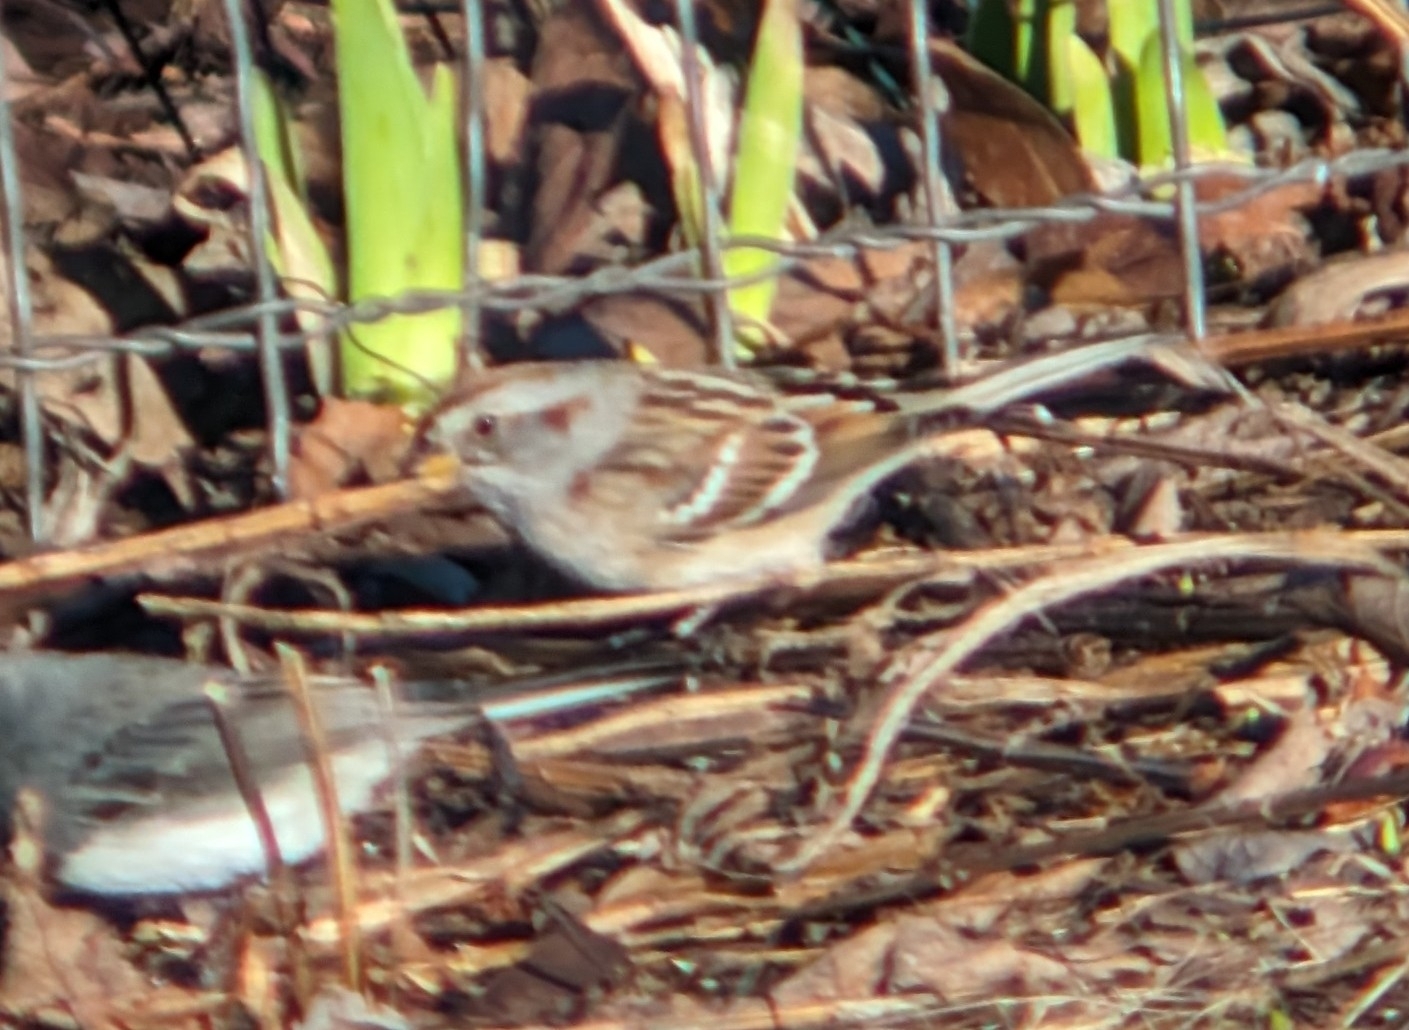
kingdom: Animalia
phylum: Chordata
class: Aves
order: Passeriformes
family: Passerellidae
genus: Spizelloides
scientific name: Spizelloides arborea
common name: American tree sparrow
